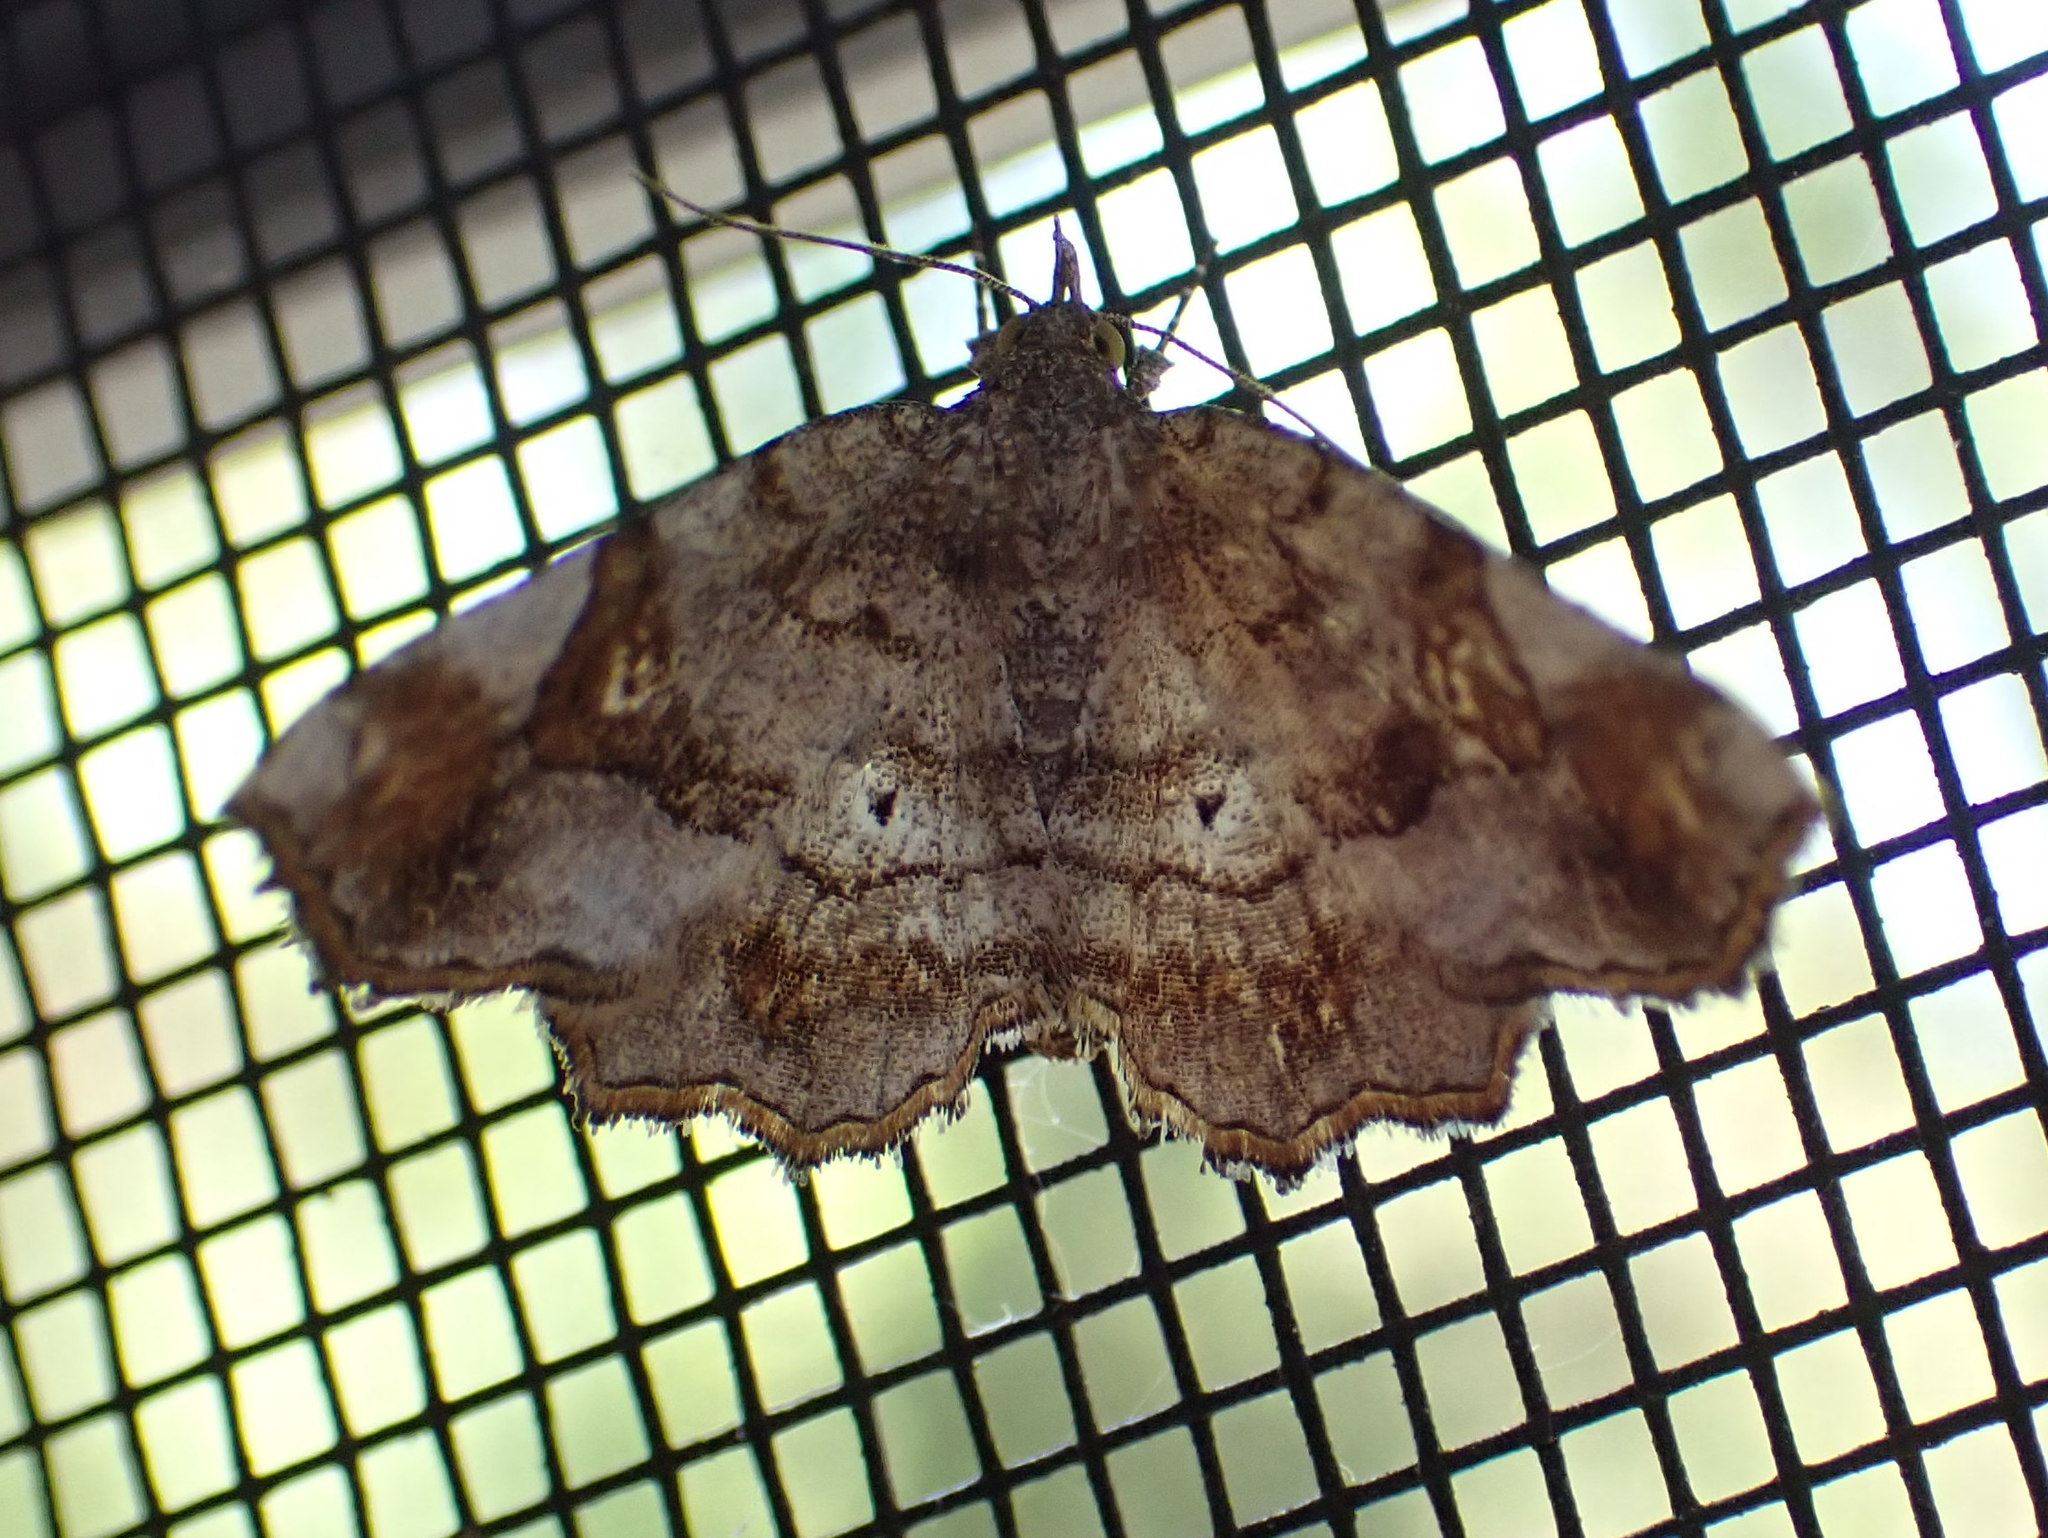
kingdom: Animalia
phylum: Arthropoda
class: Insecta
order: Lepidoptera
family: Erebidae
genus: Pangrapta
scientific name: Pangrapta decoralis
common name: Decorated owlet
